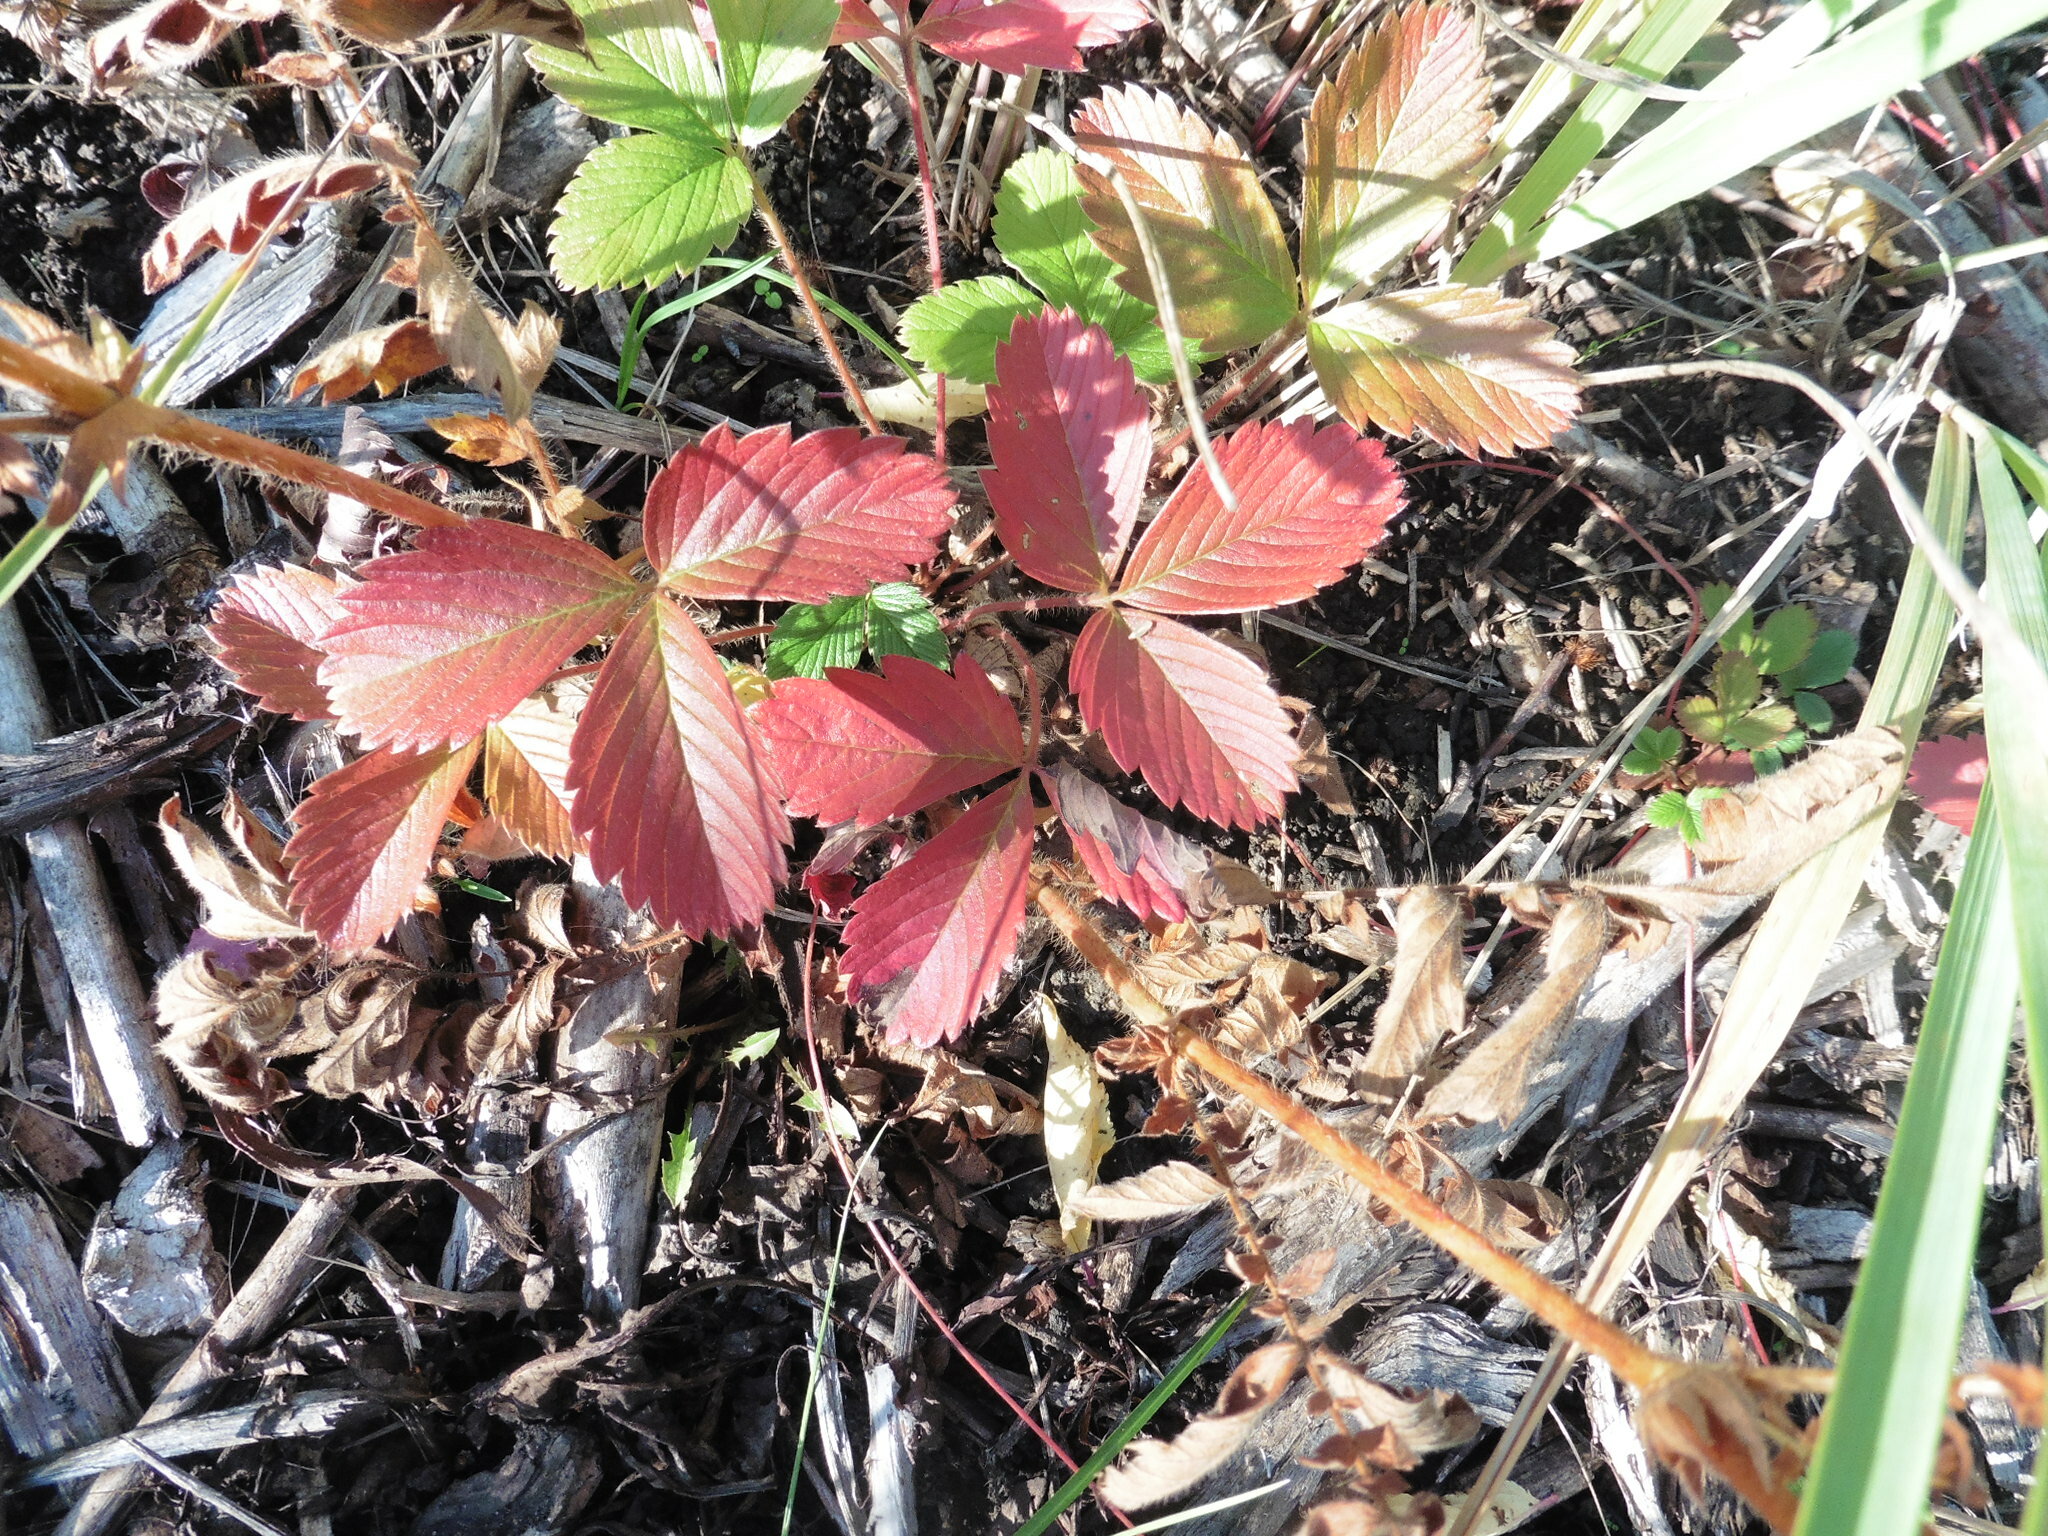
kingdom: Plantae
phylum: Tracheophyta
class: Magnoliopsida
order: Rosales
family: Rosaceae
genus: Fragaria
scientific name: Fragaria viridis
